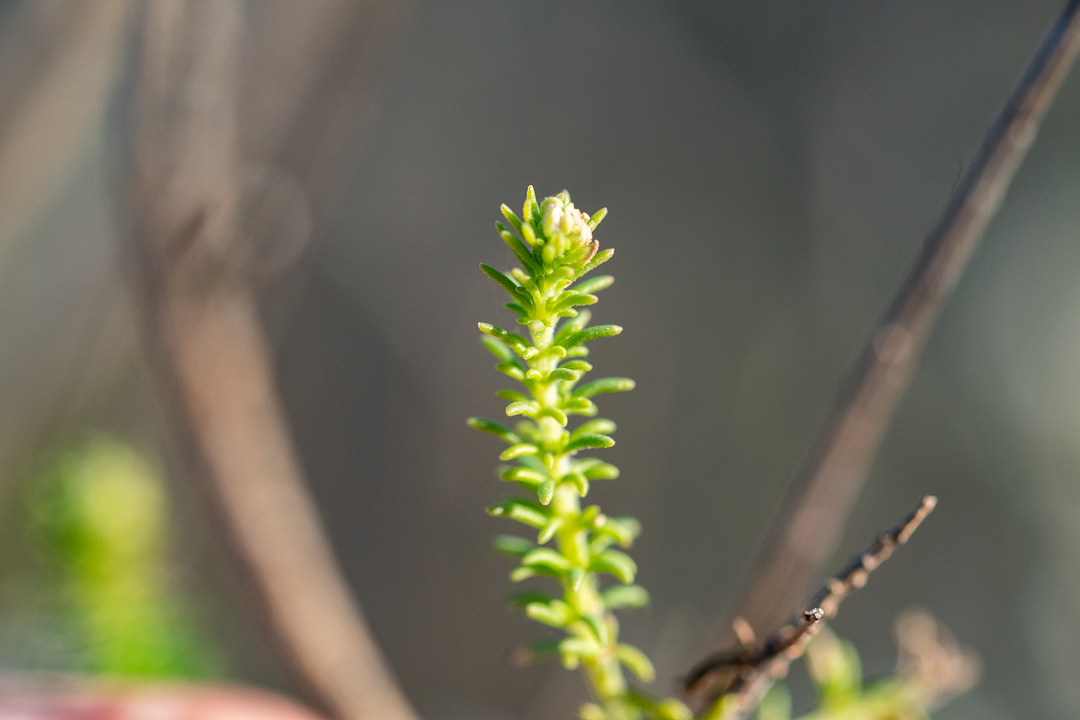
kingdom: Plantae
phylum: Tracheophyta
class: Magnoliopsida
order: Lamiales
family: Scrophulariaceae
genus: Selago
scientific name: Selago corymbosa
